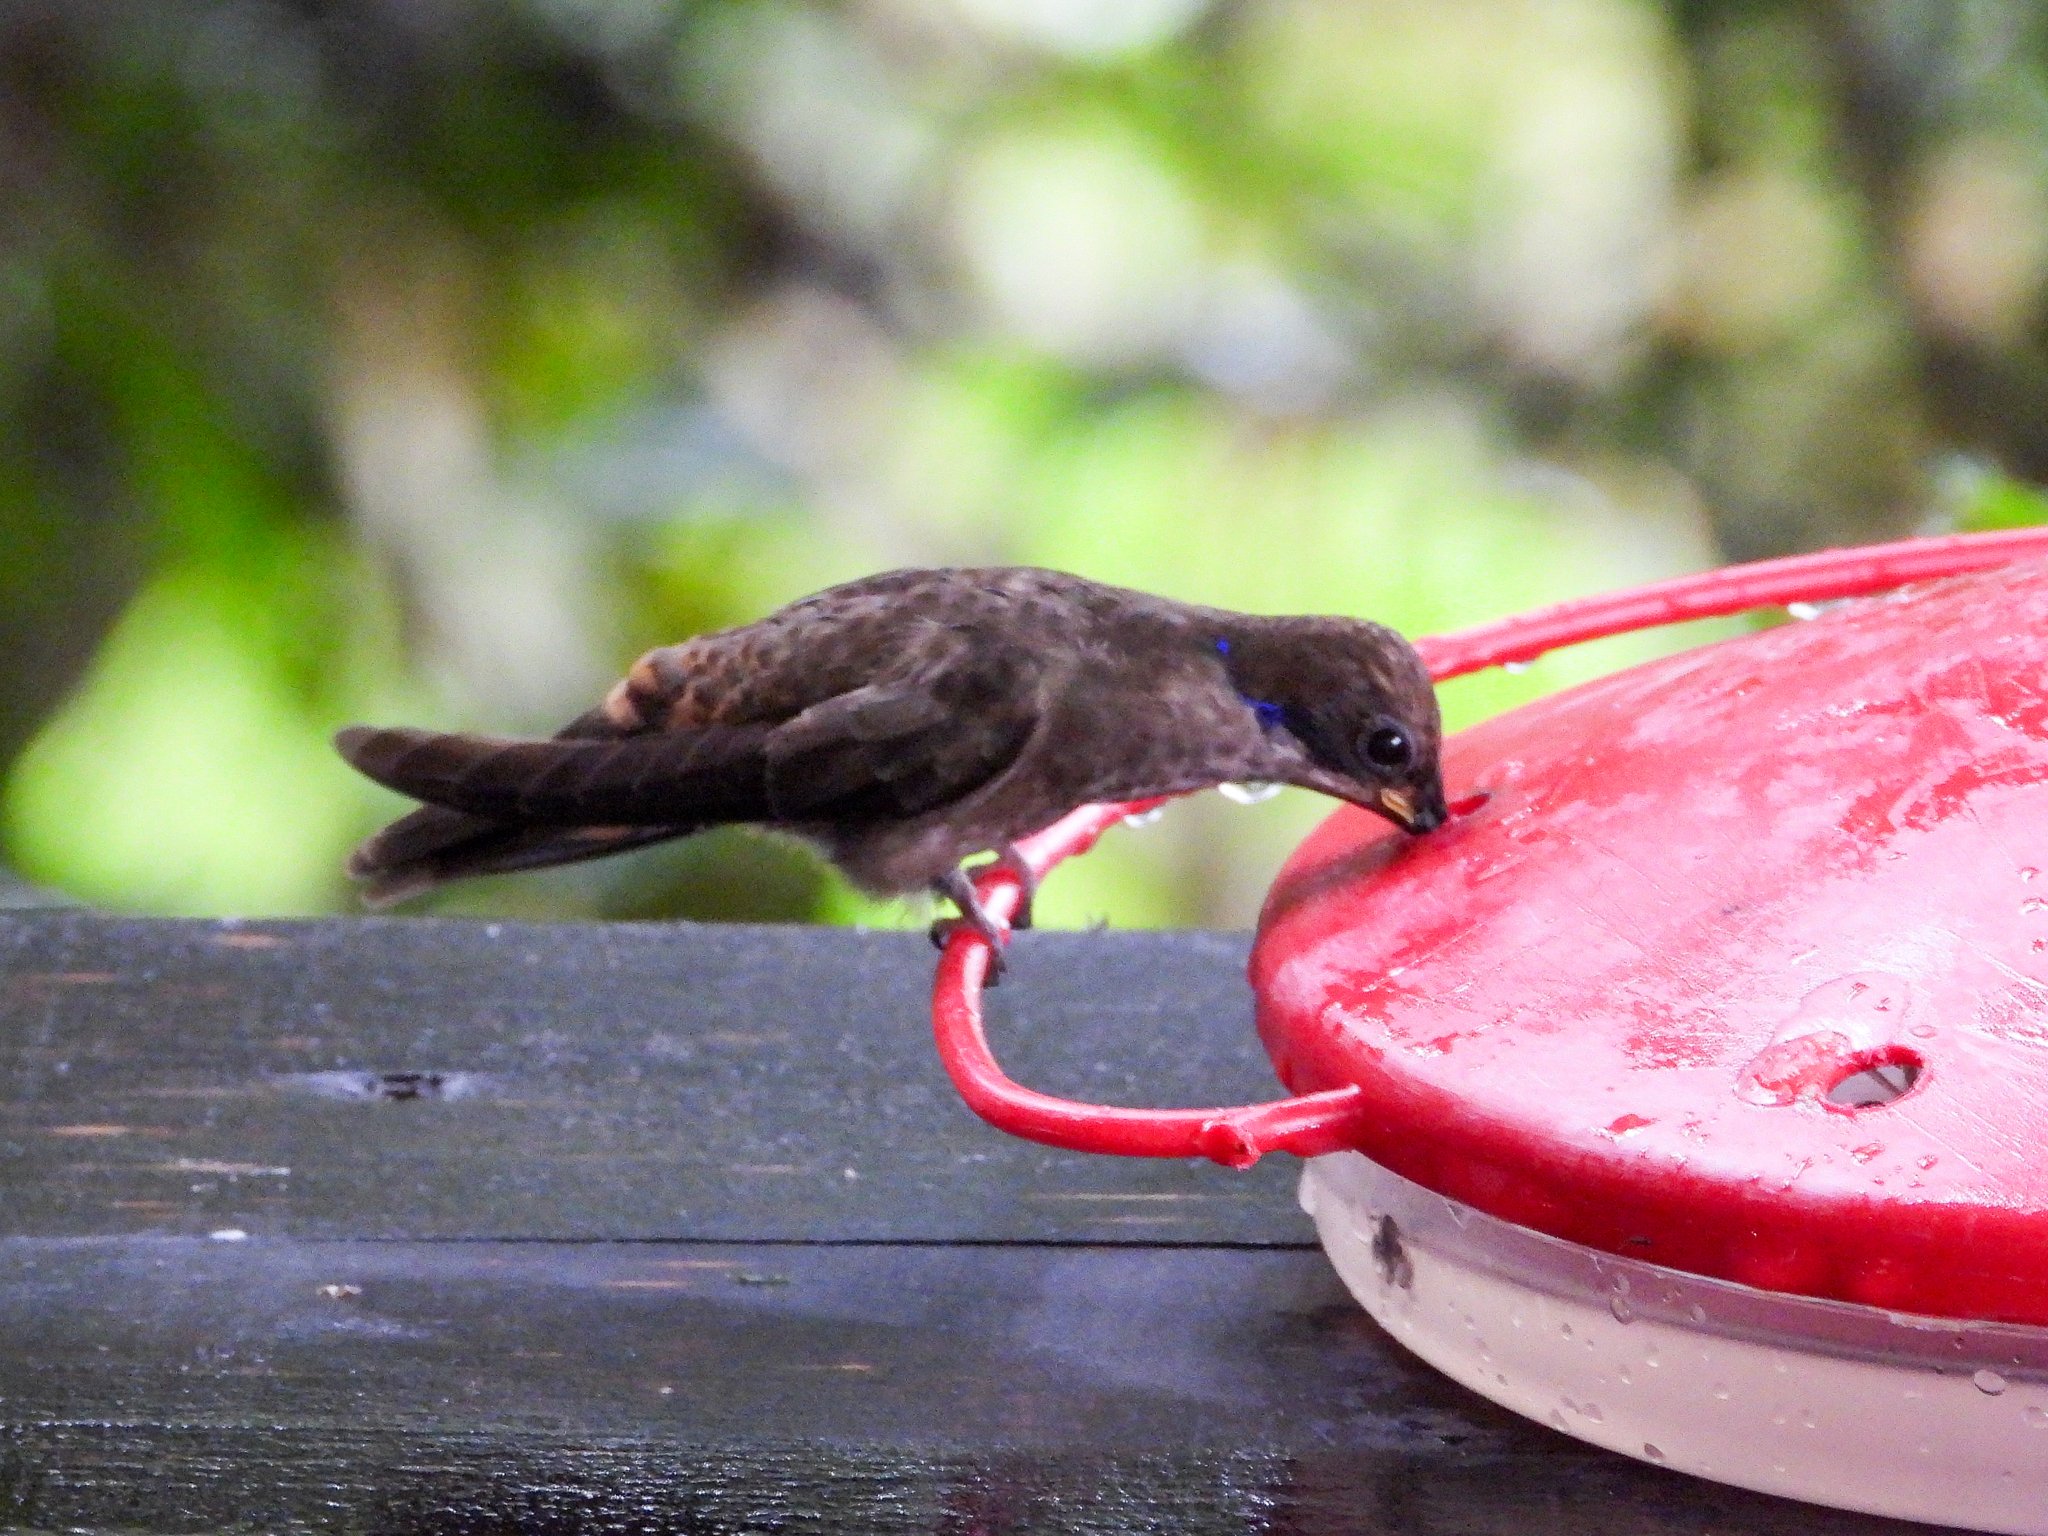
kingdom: Animalia
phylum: Chordata
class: Aves
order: Apodiformes
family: Trochilidae
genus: Colibri
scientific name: Colibri delphinae
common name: Brown violetear
